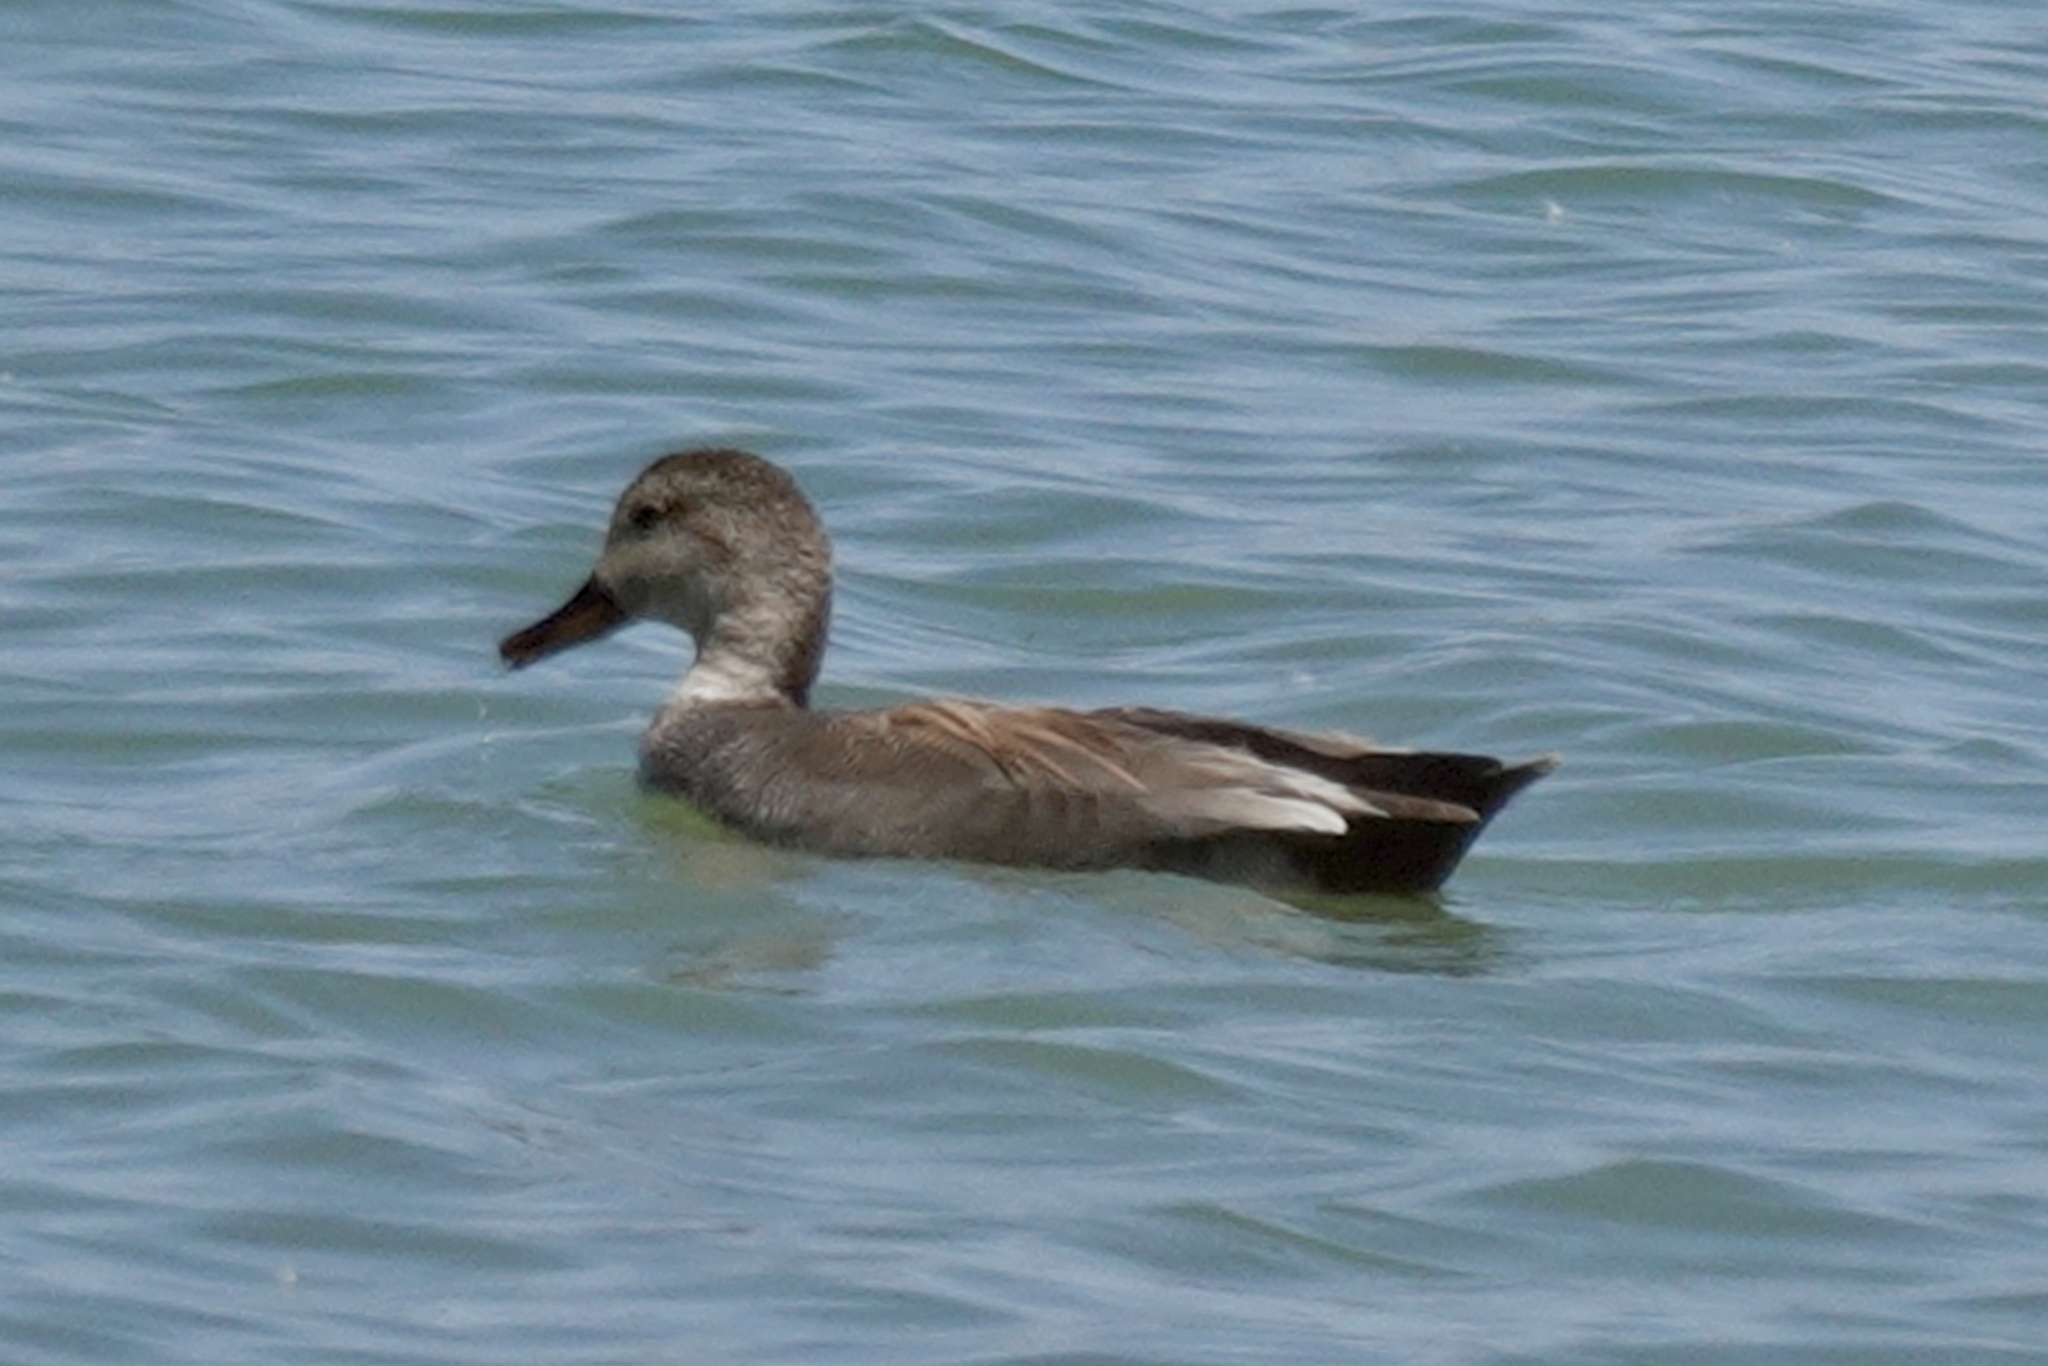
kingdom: Animalia
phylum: Chordata
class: Aves
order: Anseriformes
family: Anatidae
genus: Mareca
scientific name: Mareca strepera
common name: Gadwall
